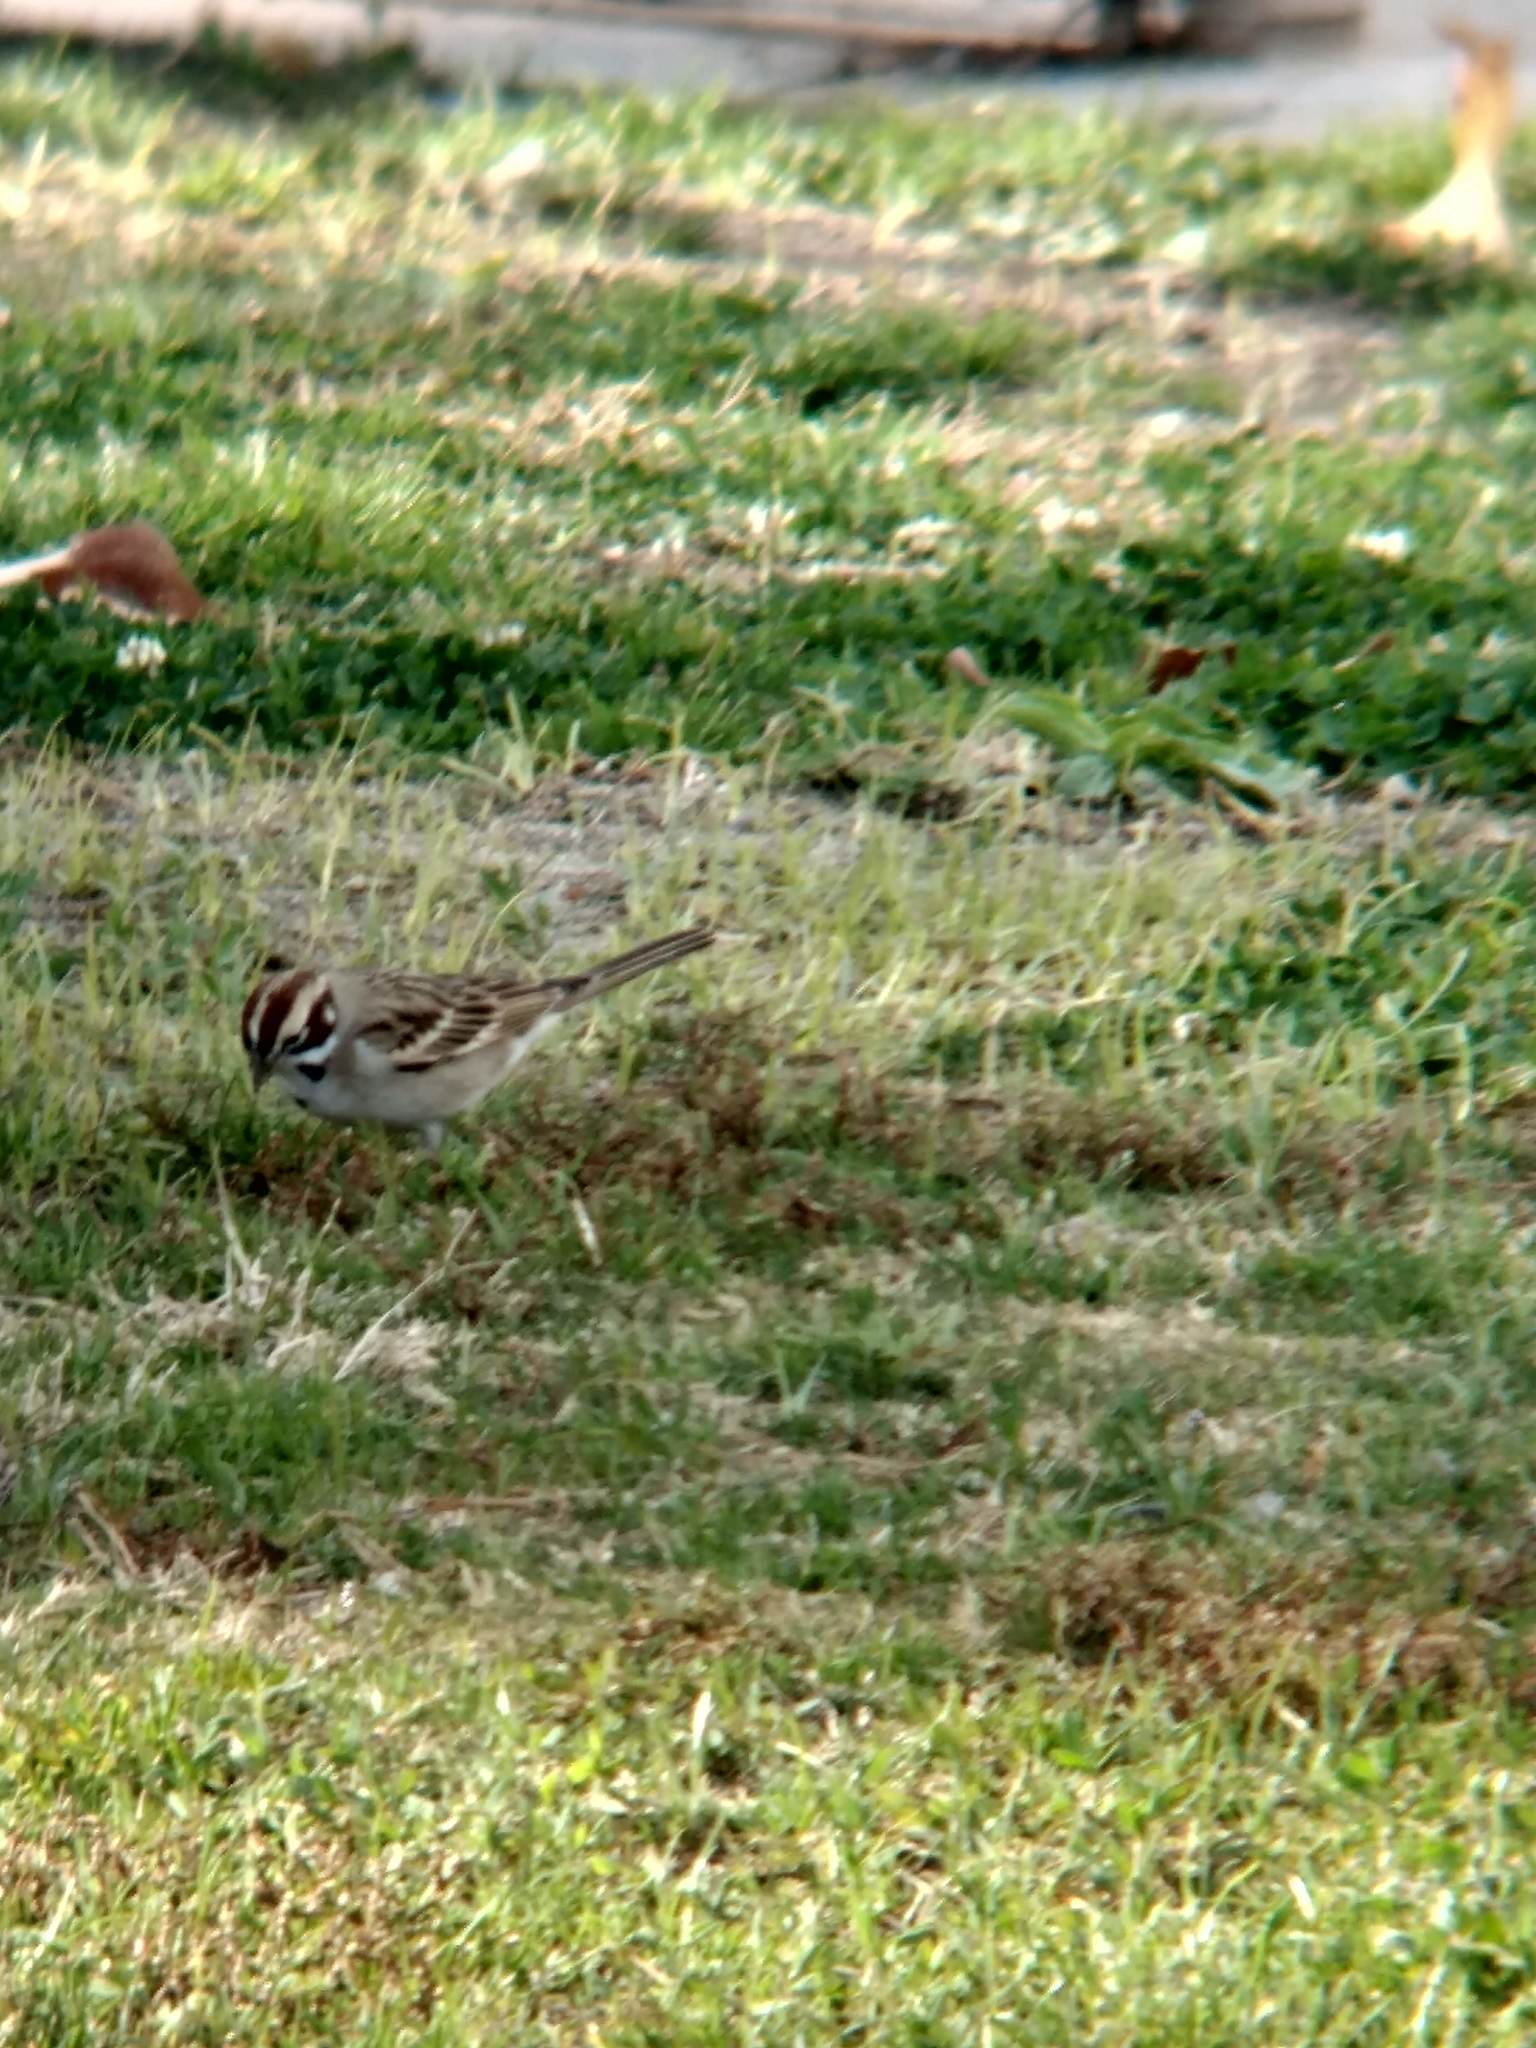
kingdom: Animalia
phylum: Chordata
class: Aves
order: Passeriformes
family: Passerellidae
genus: Chondestes
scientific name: Chondestes grammacus
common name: Lark sparrow
